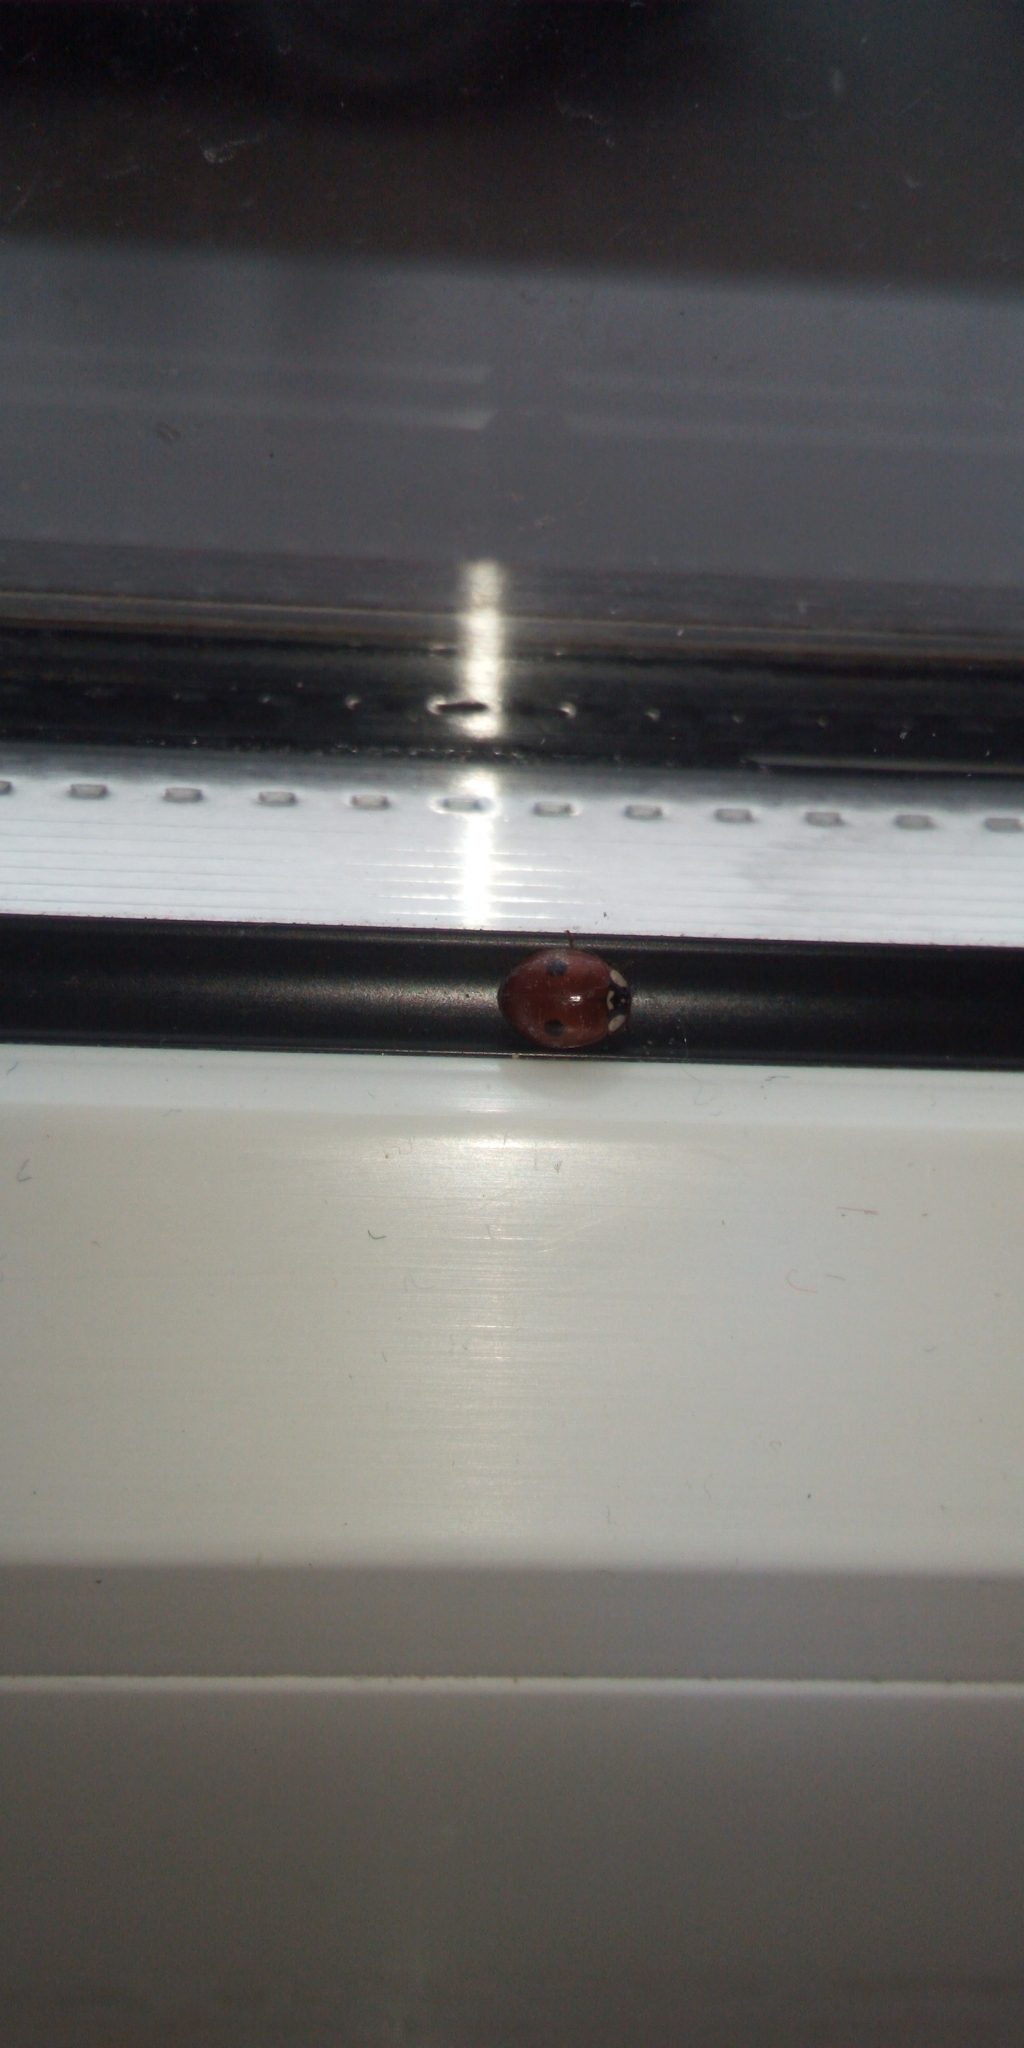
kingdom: Animalia
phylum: Arthropoda
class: Insecta
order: Coleoptera
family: Coccinellidae
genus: Adalia
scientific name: Adalia bipunctata
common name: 2-spot ladybird
